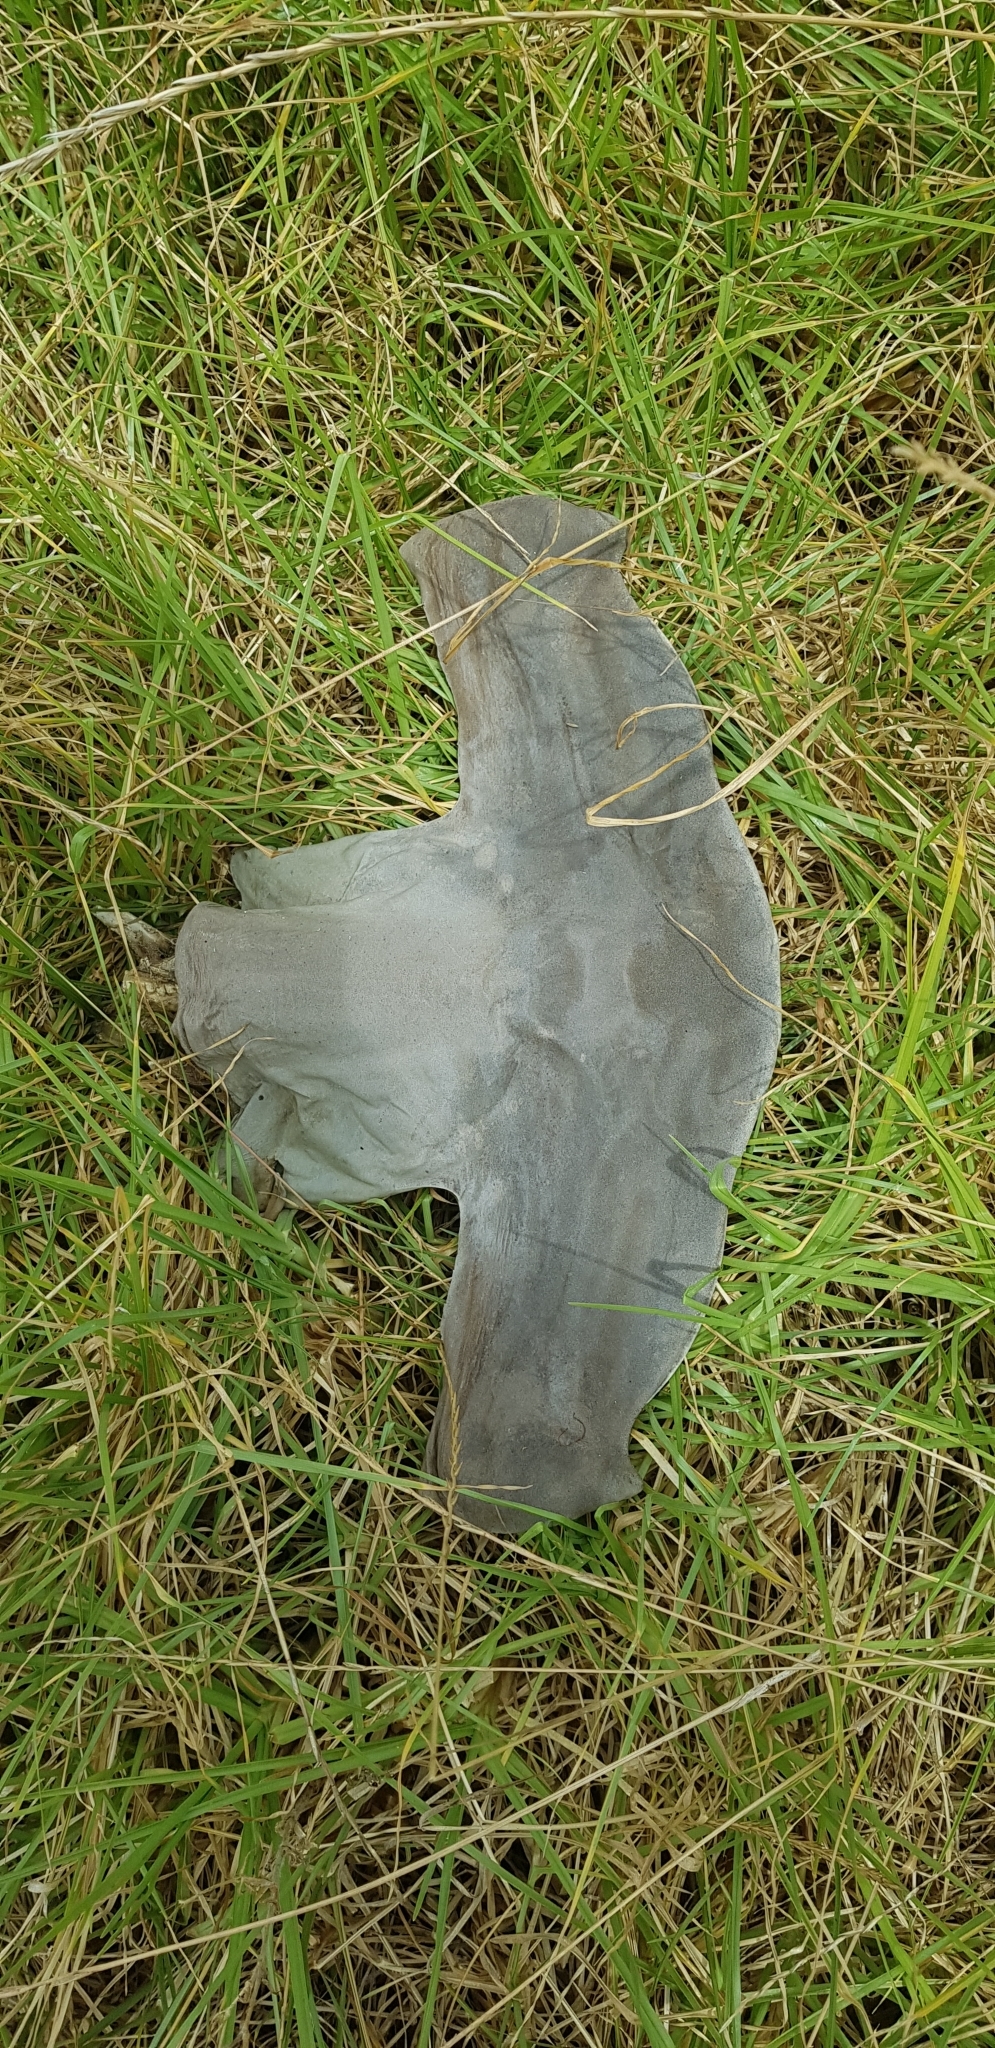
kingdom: Animalia
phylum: Chordata
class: Elasmobranchii
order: Carcharhiniformes
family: Sphyrnidae
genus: Sphyrna
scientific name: Sphyrna zygaena
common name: Smooth hammerhead
